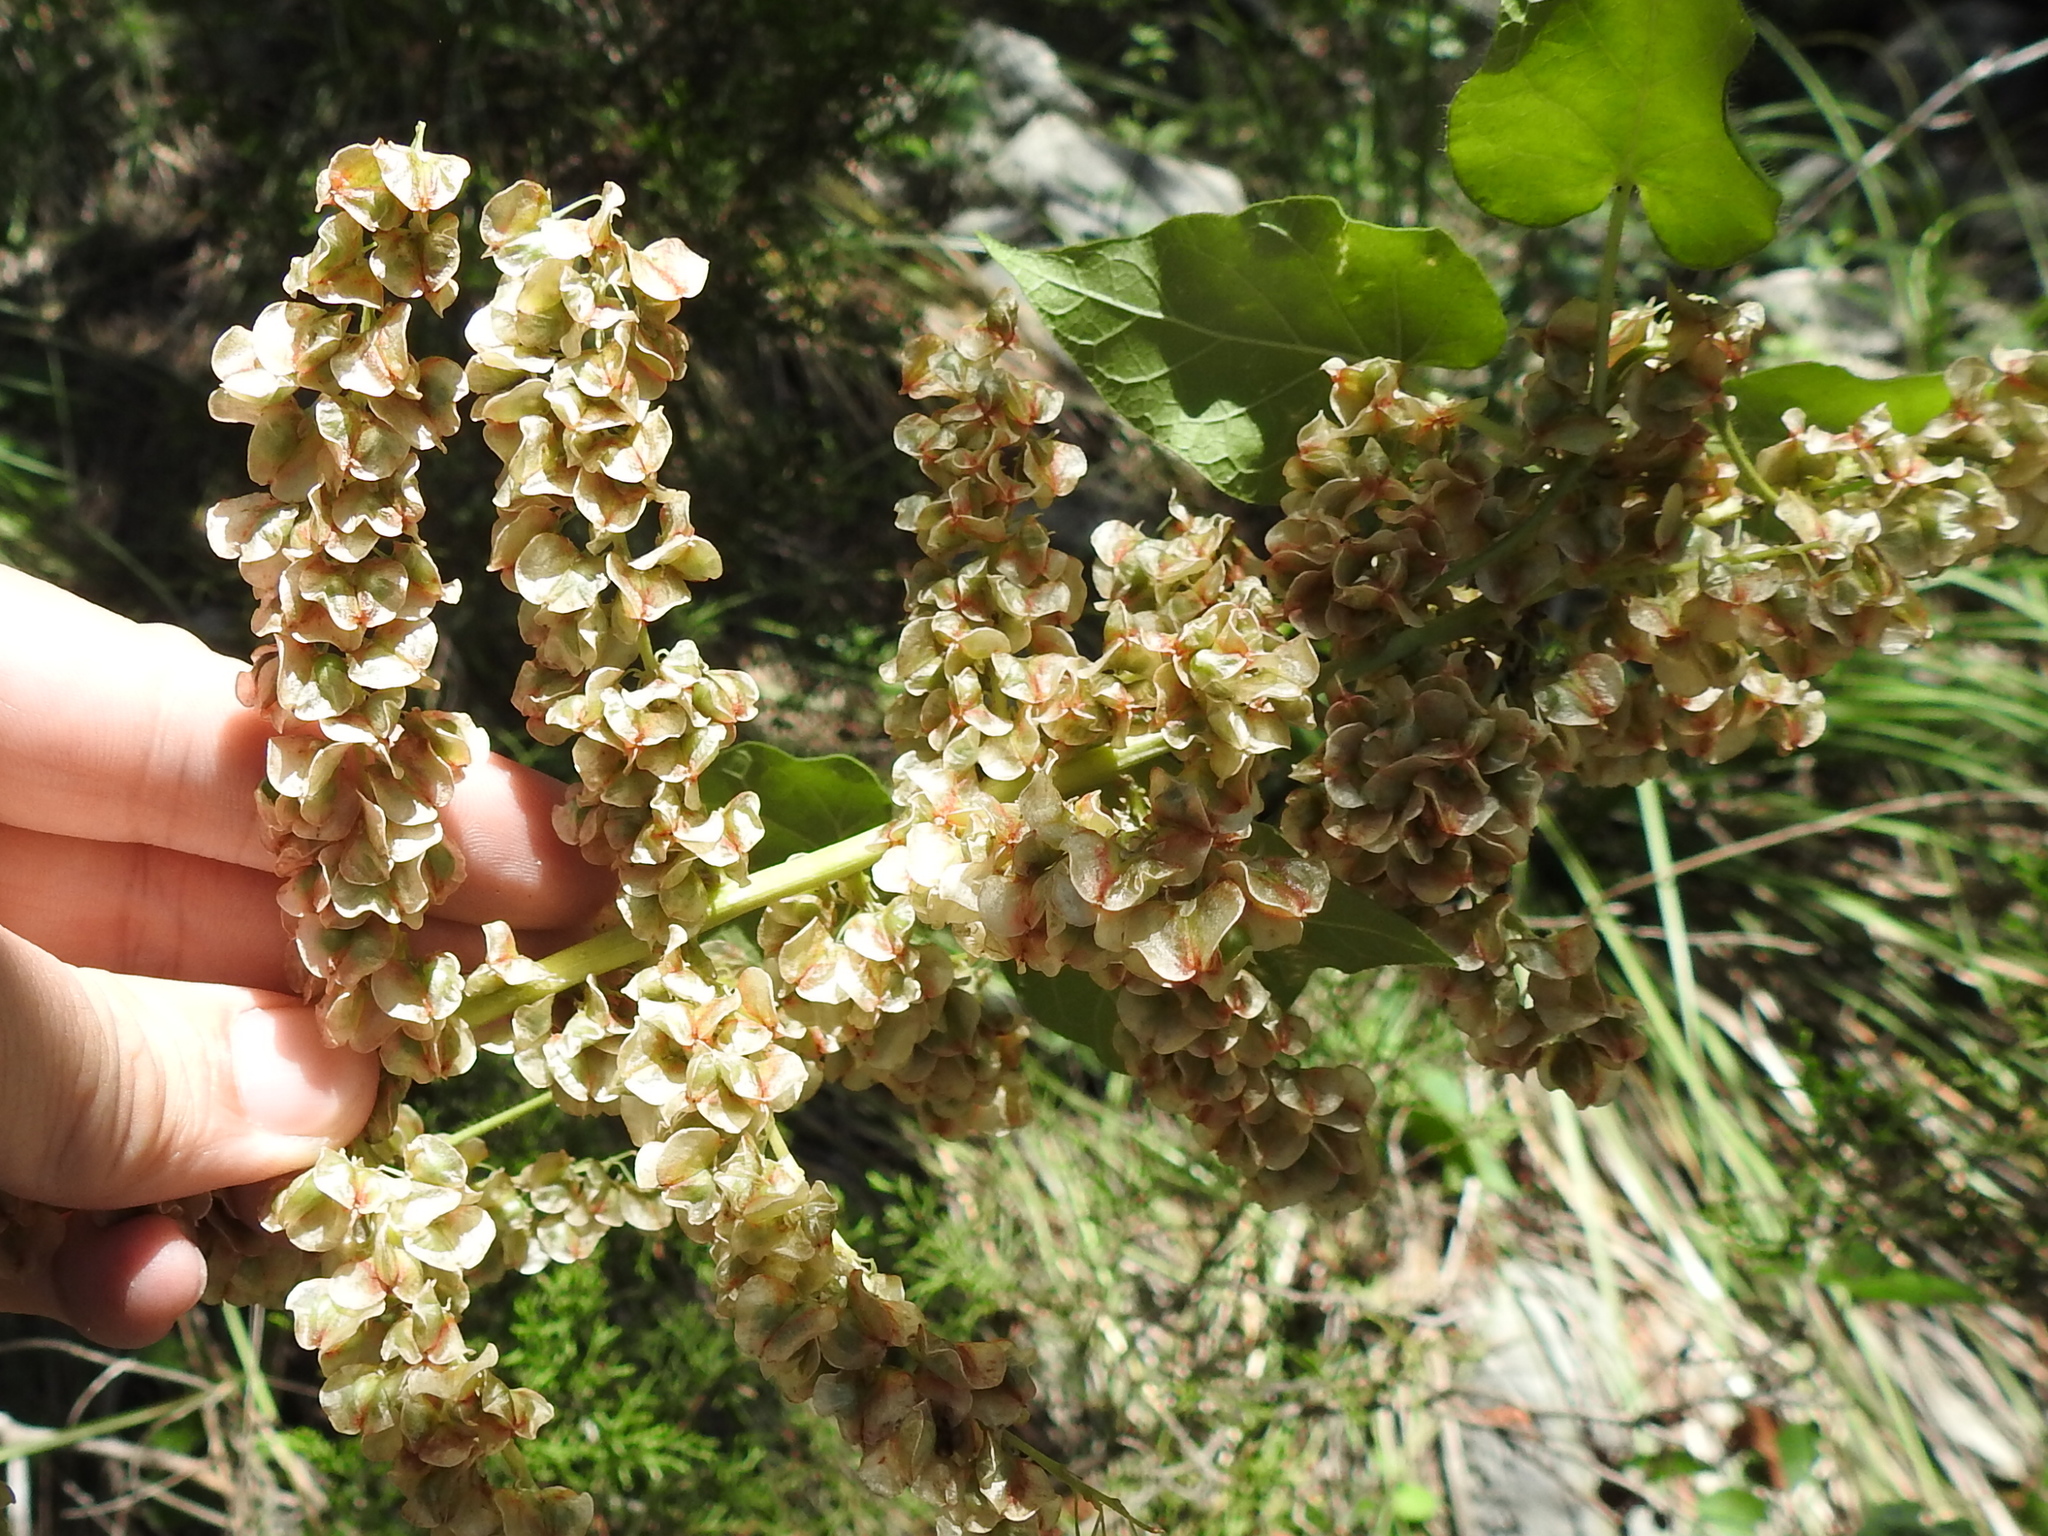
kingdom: Plantae
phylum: Tracheophyta
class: Liliopsida
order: Asparagales
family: Asparagaceae
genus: Nolina
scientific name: Nolina lindheimeriana
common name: Lindheimer's bear-grass
